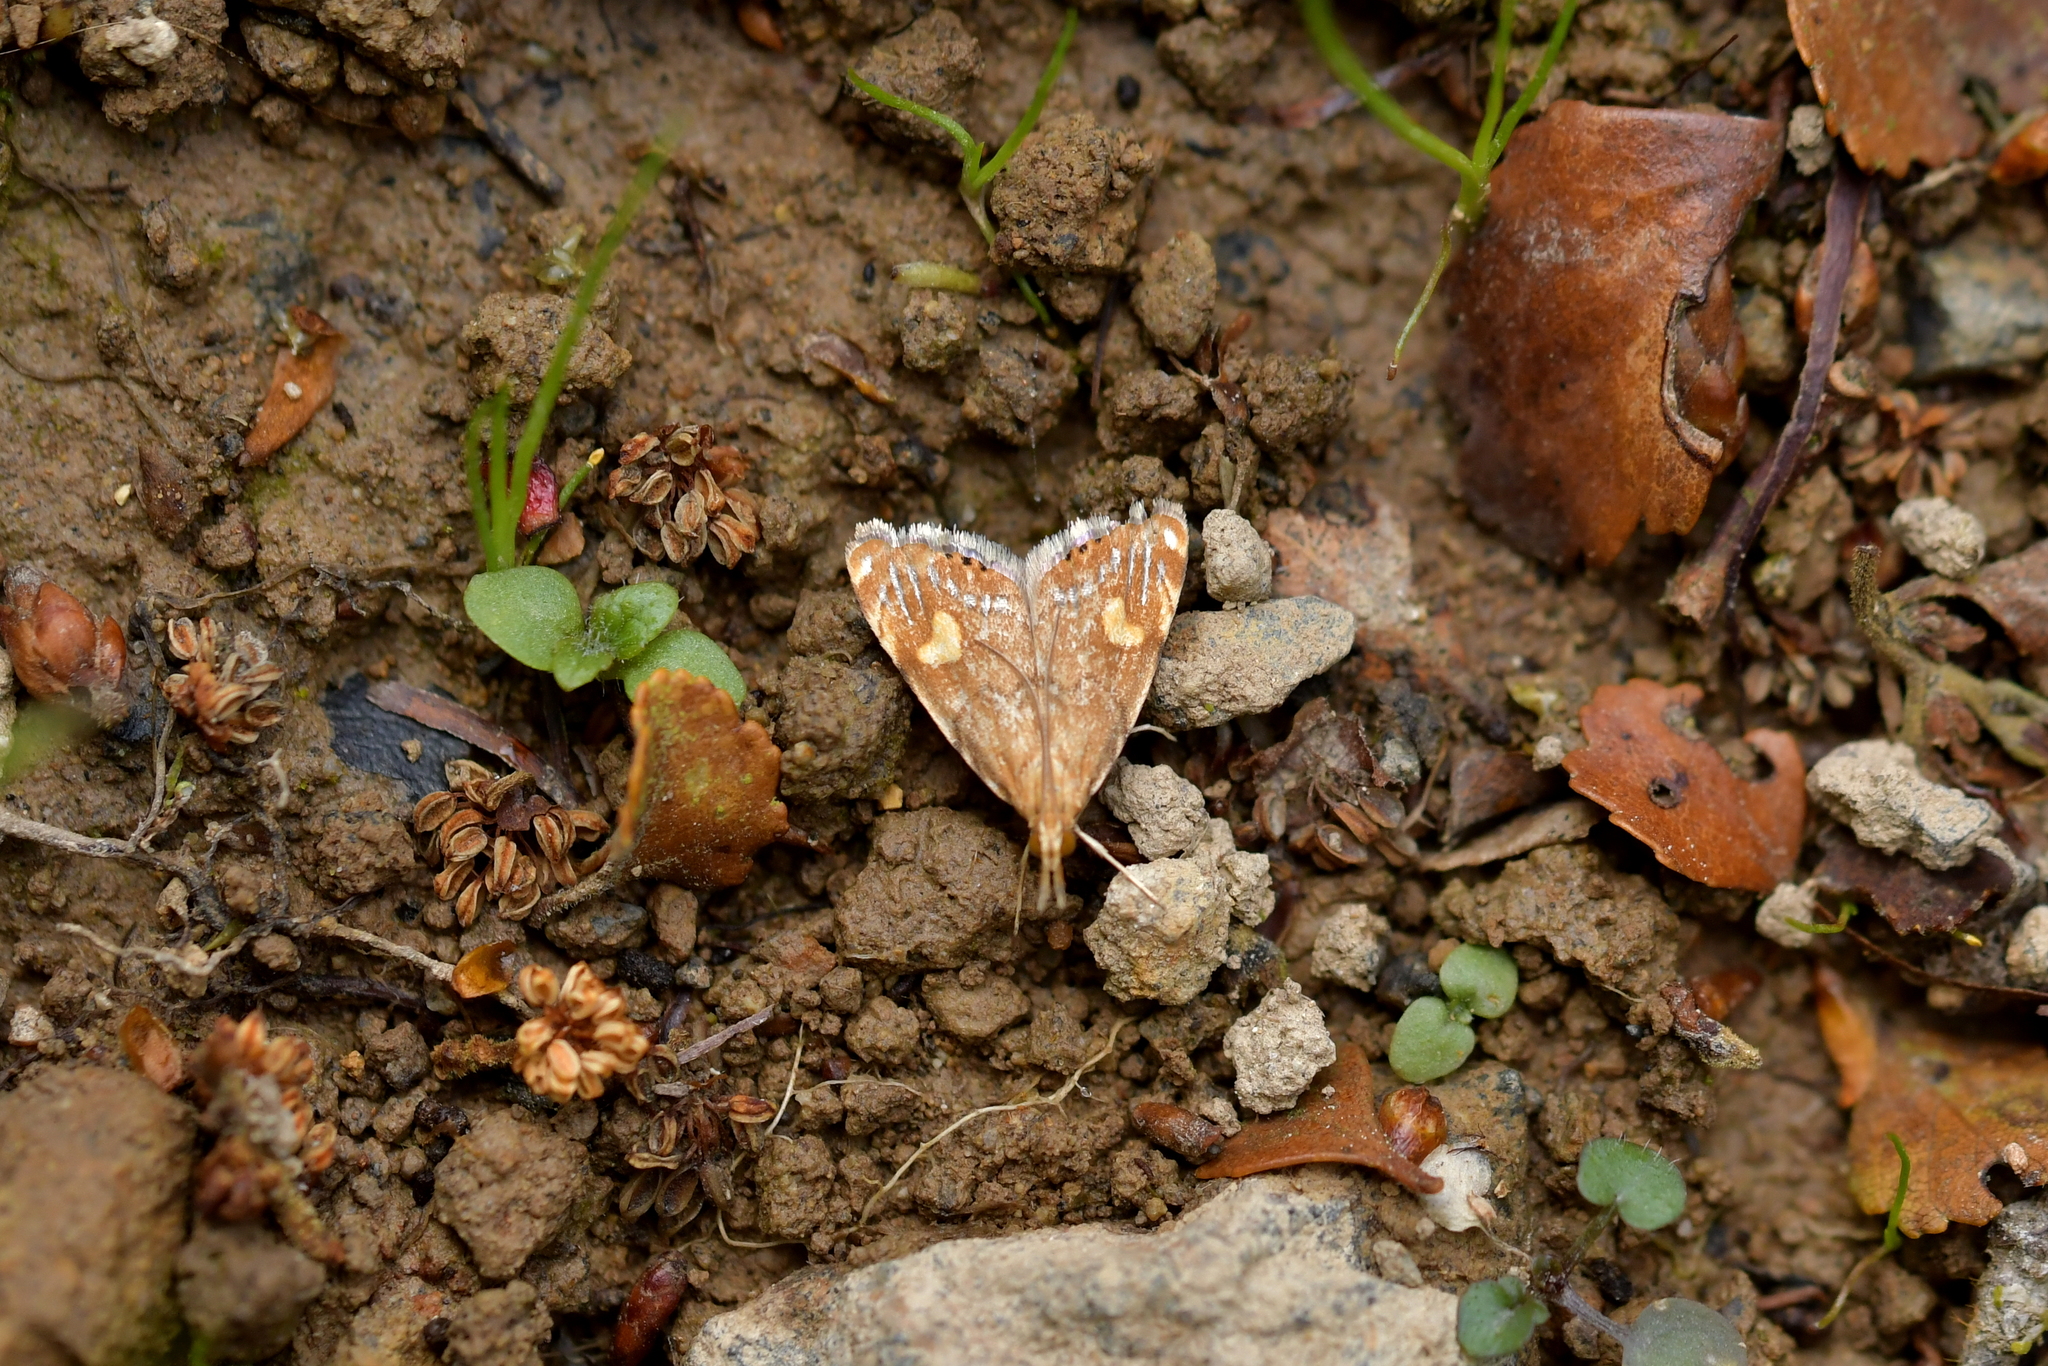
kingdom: Animalia
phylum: Arthropoda
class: Insecta
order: Lepidoptera
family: Crambidae
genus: Glaucocharis
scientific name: Glaucocharis leucoxantha
